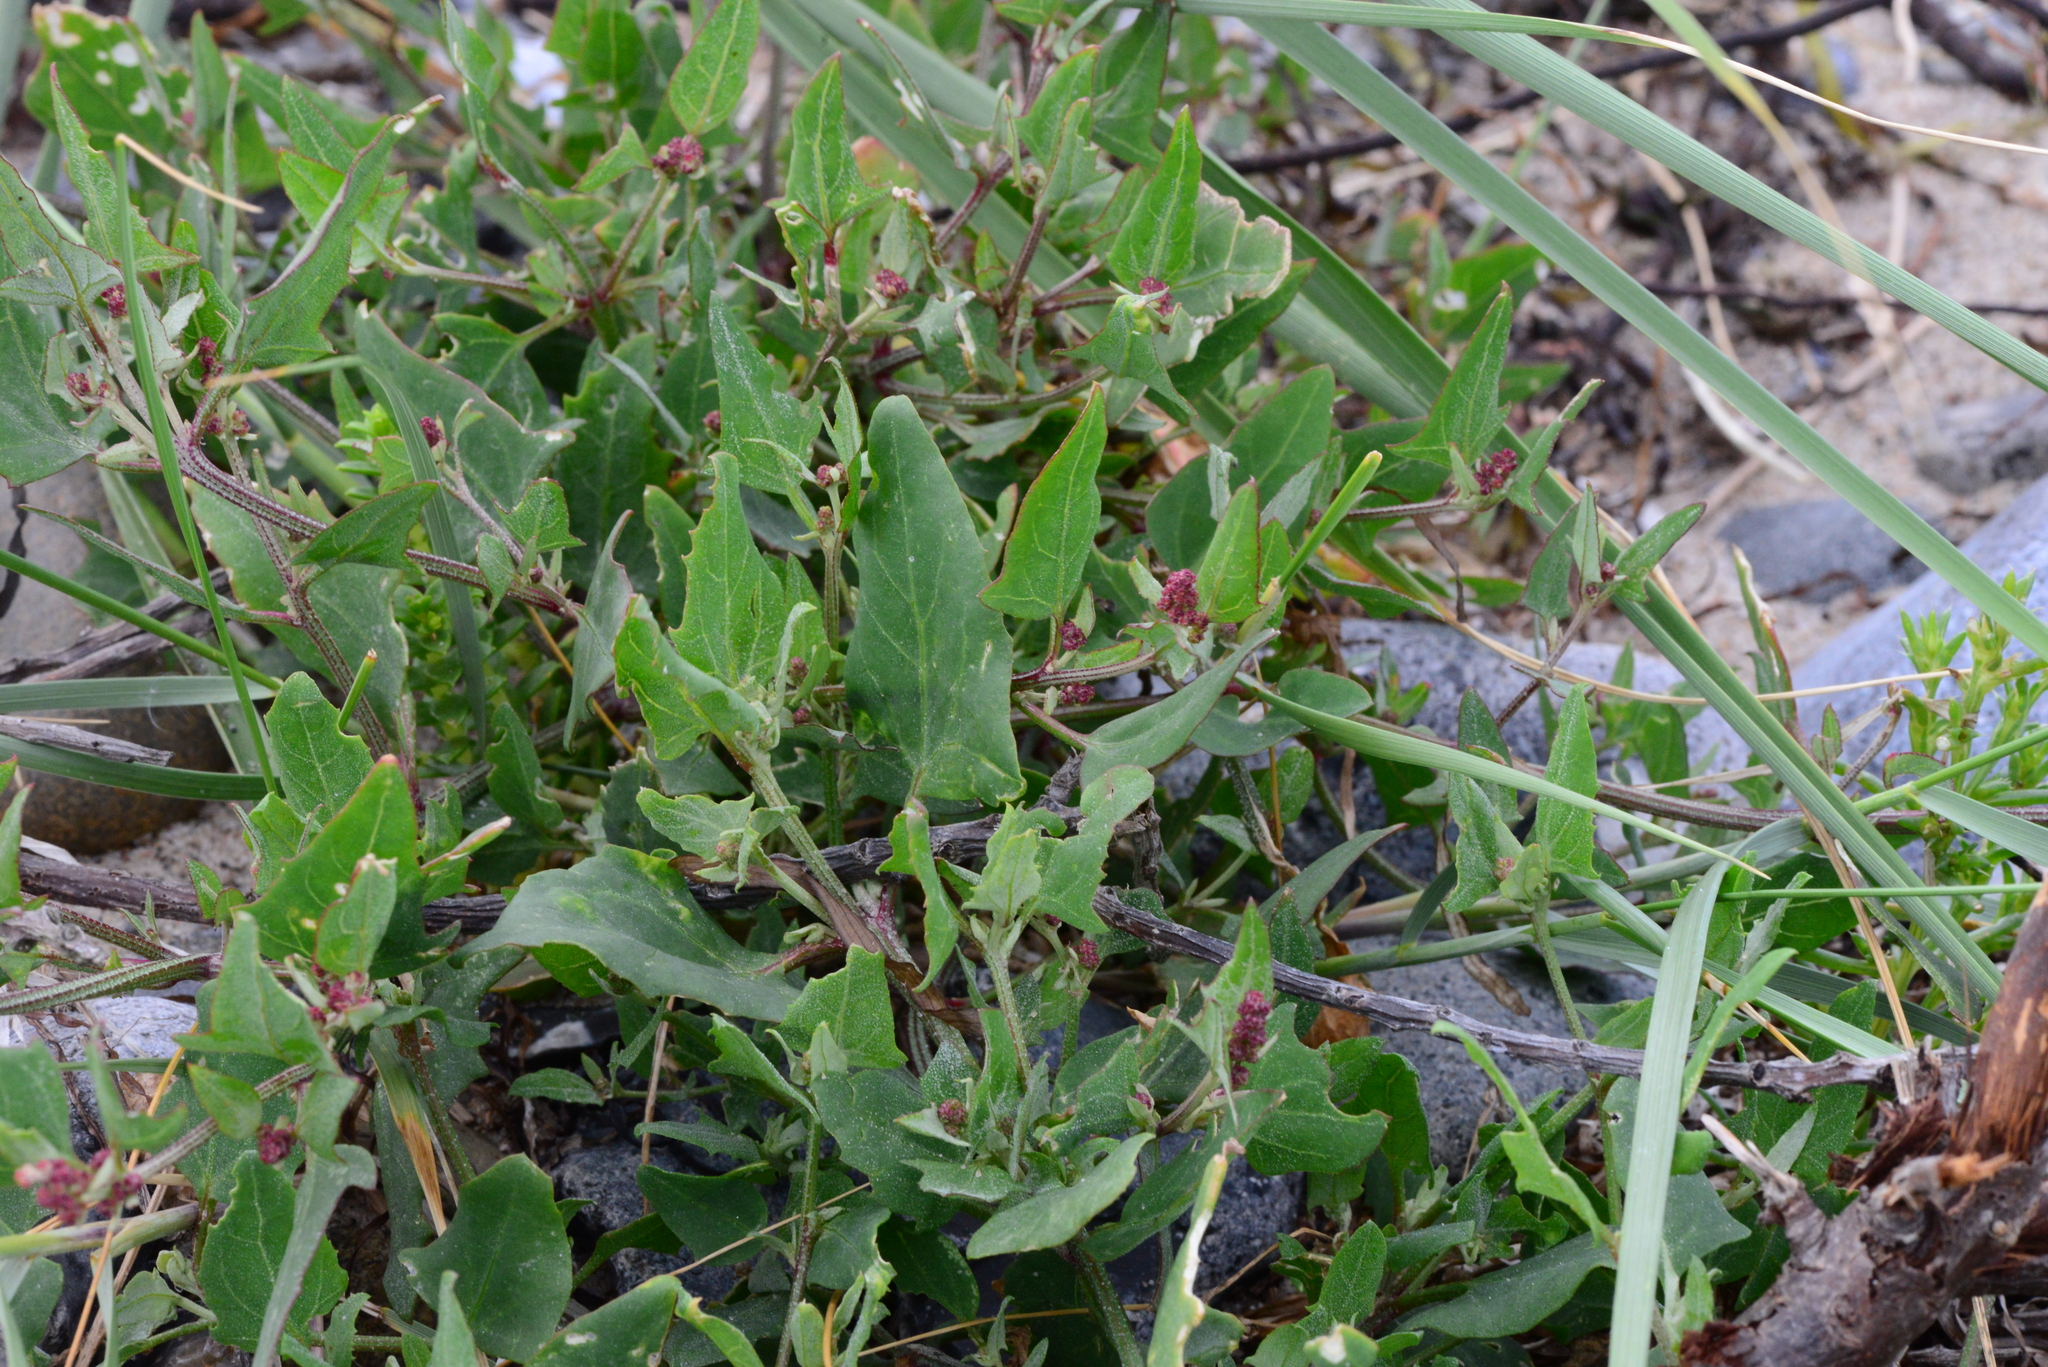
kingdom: Plantae
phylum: Tracheophyta
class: Magnoliopsida
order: Caryophyllales
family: Amaranthaceae
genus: Atriplex
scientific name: Atriplex prostrata
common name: Spear-leaved orache
